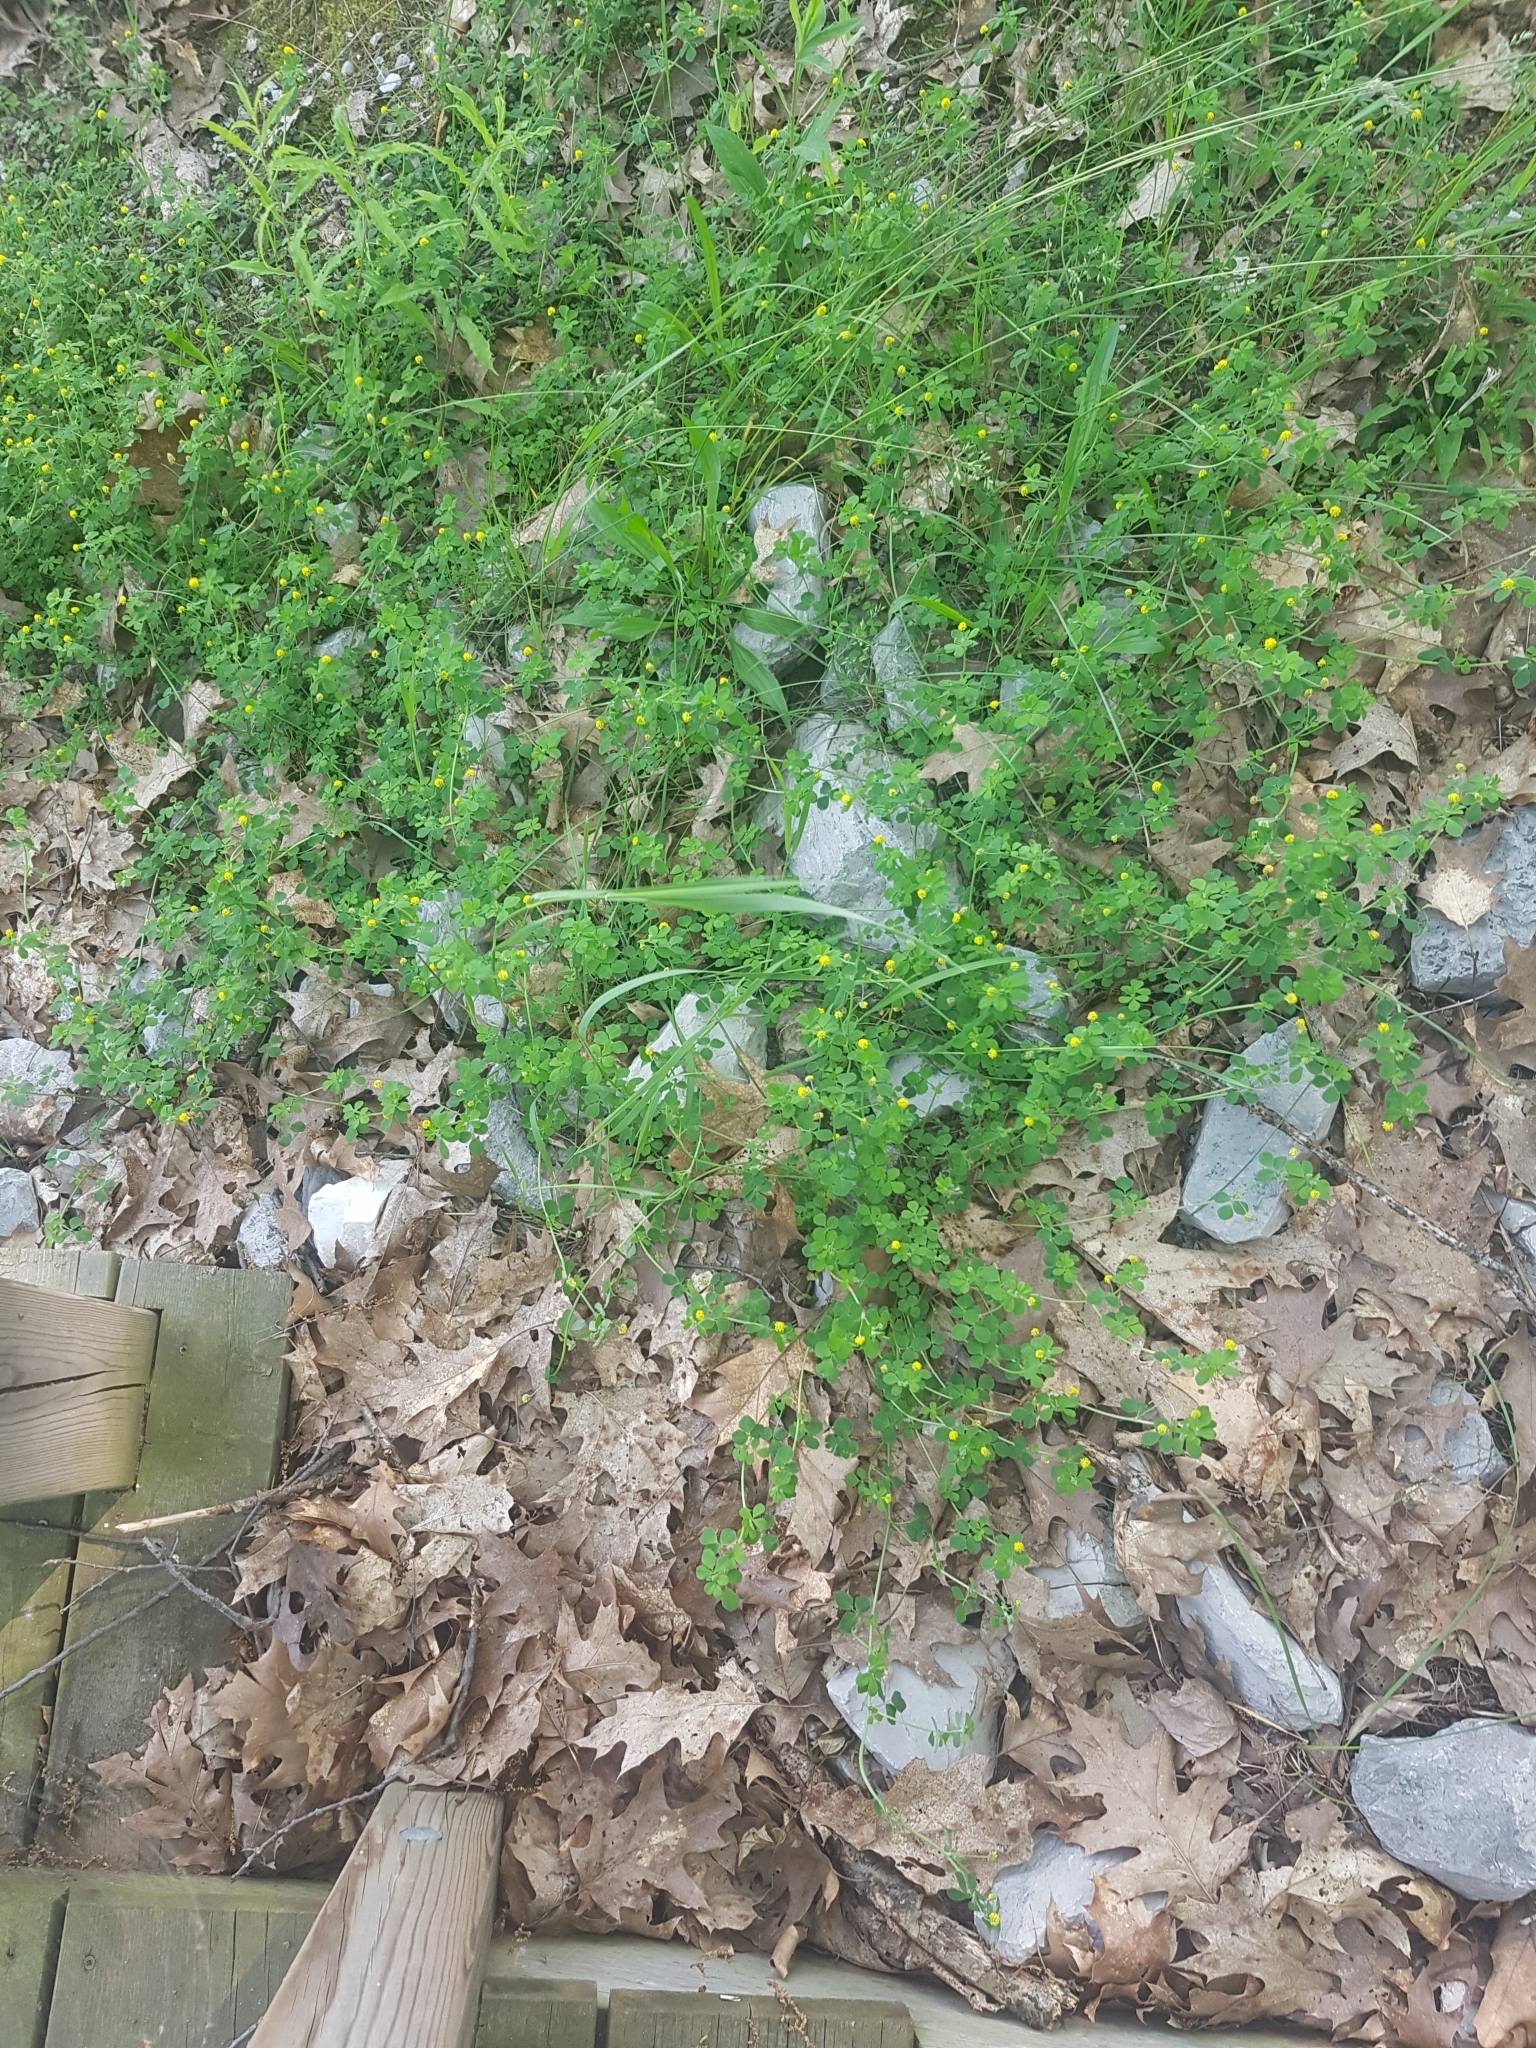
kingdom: Plantae
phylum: Tracheophyta
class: Magnoliopsida
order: Fabales
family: Fabaceae
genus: Medicago
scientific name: Medicago lupulina
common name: Black medick
